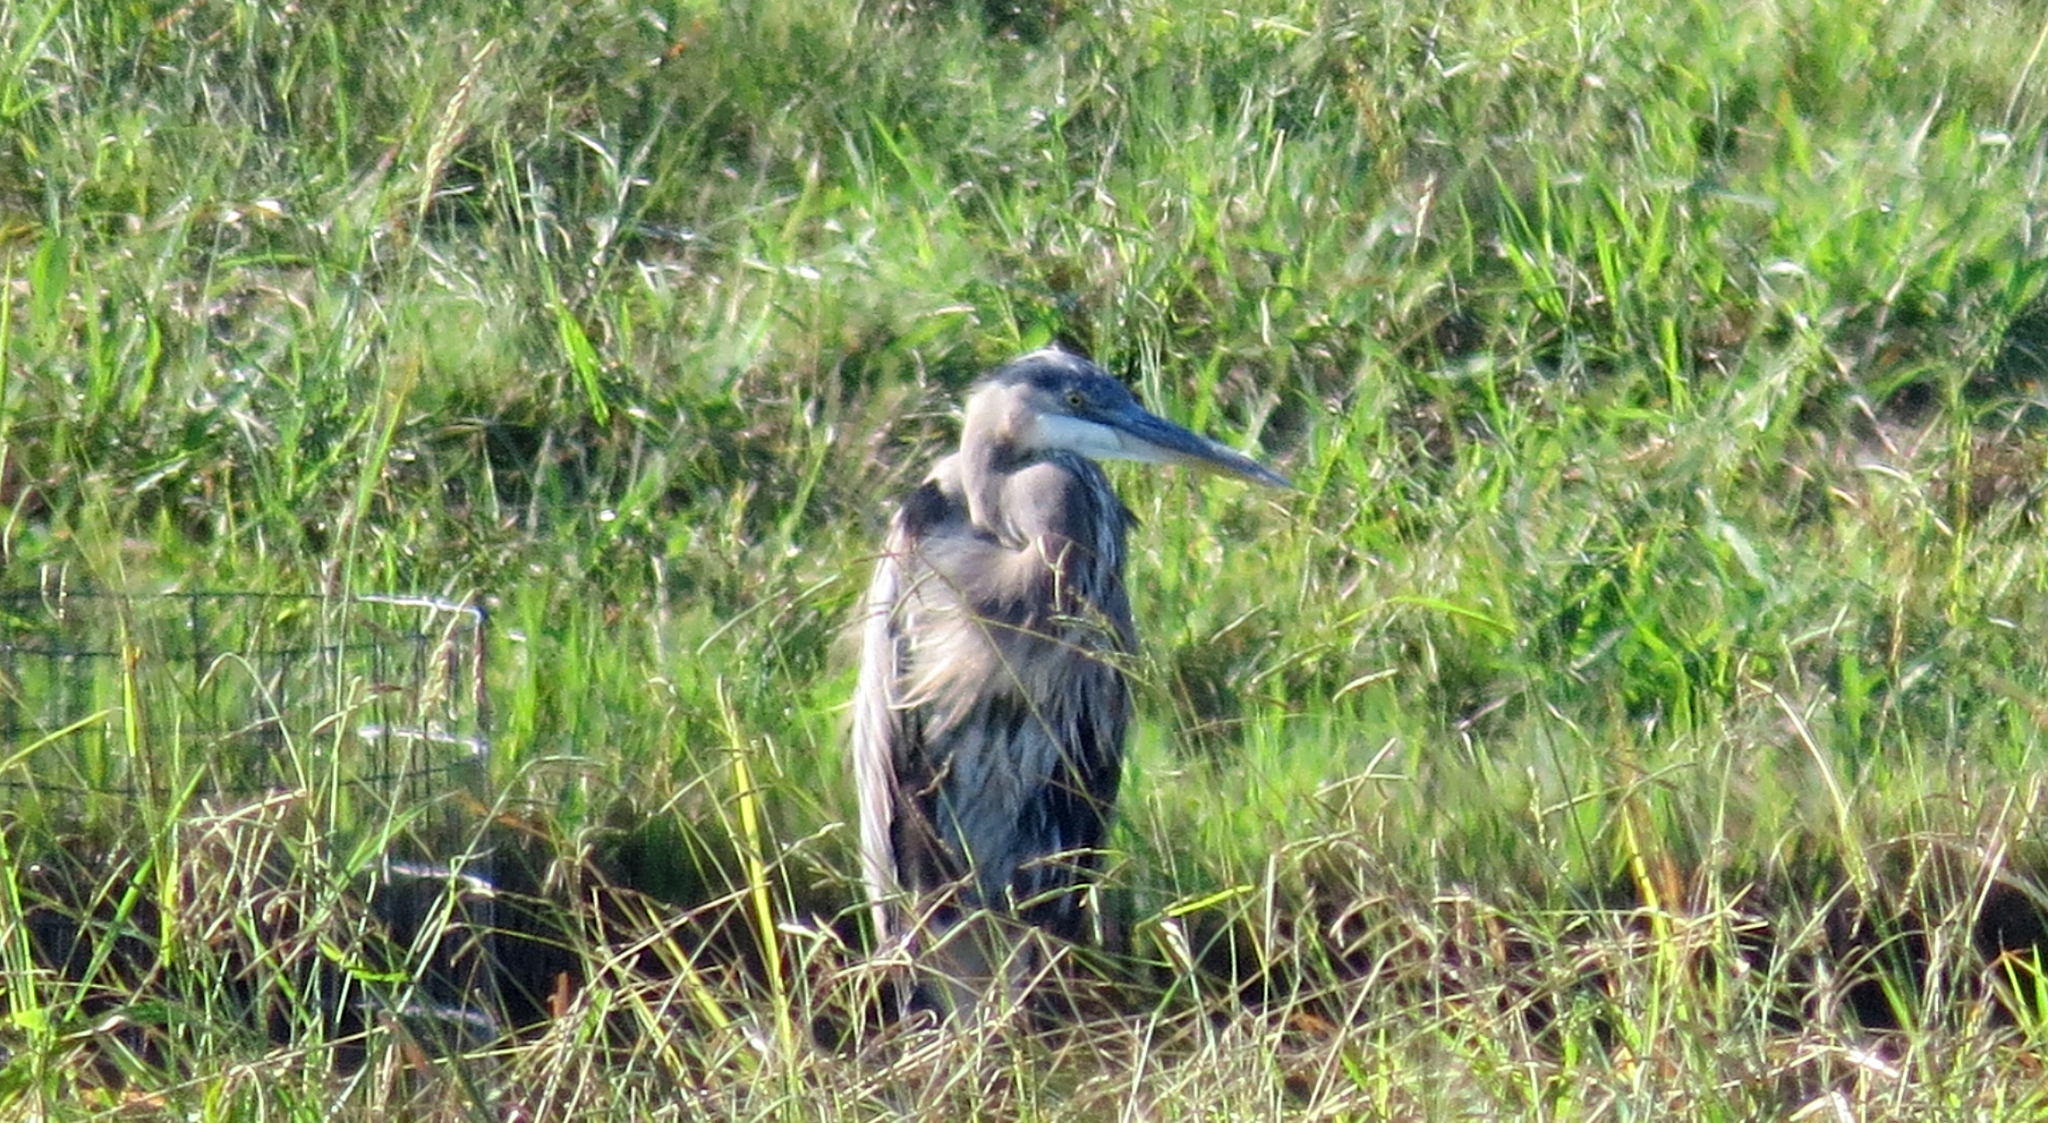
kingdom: Animalia
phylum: Chordata
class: Aves
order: Pelecaniformes
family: Ardeidae
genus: Ardea
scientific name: Ardea herodias
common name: Great blue heron
